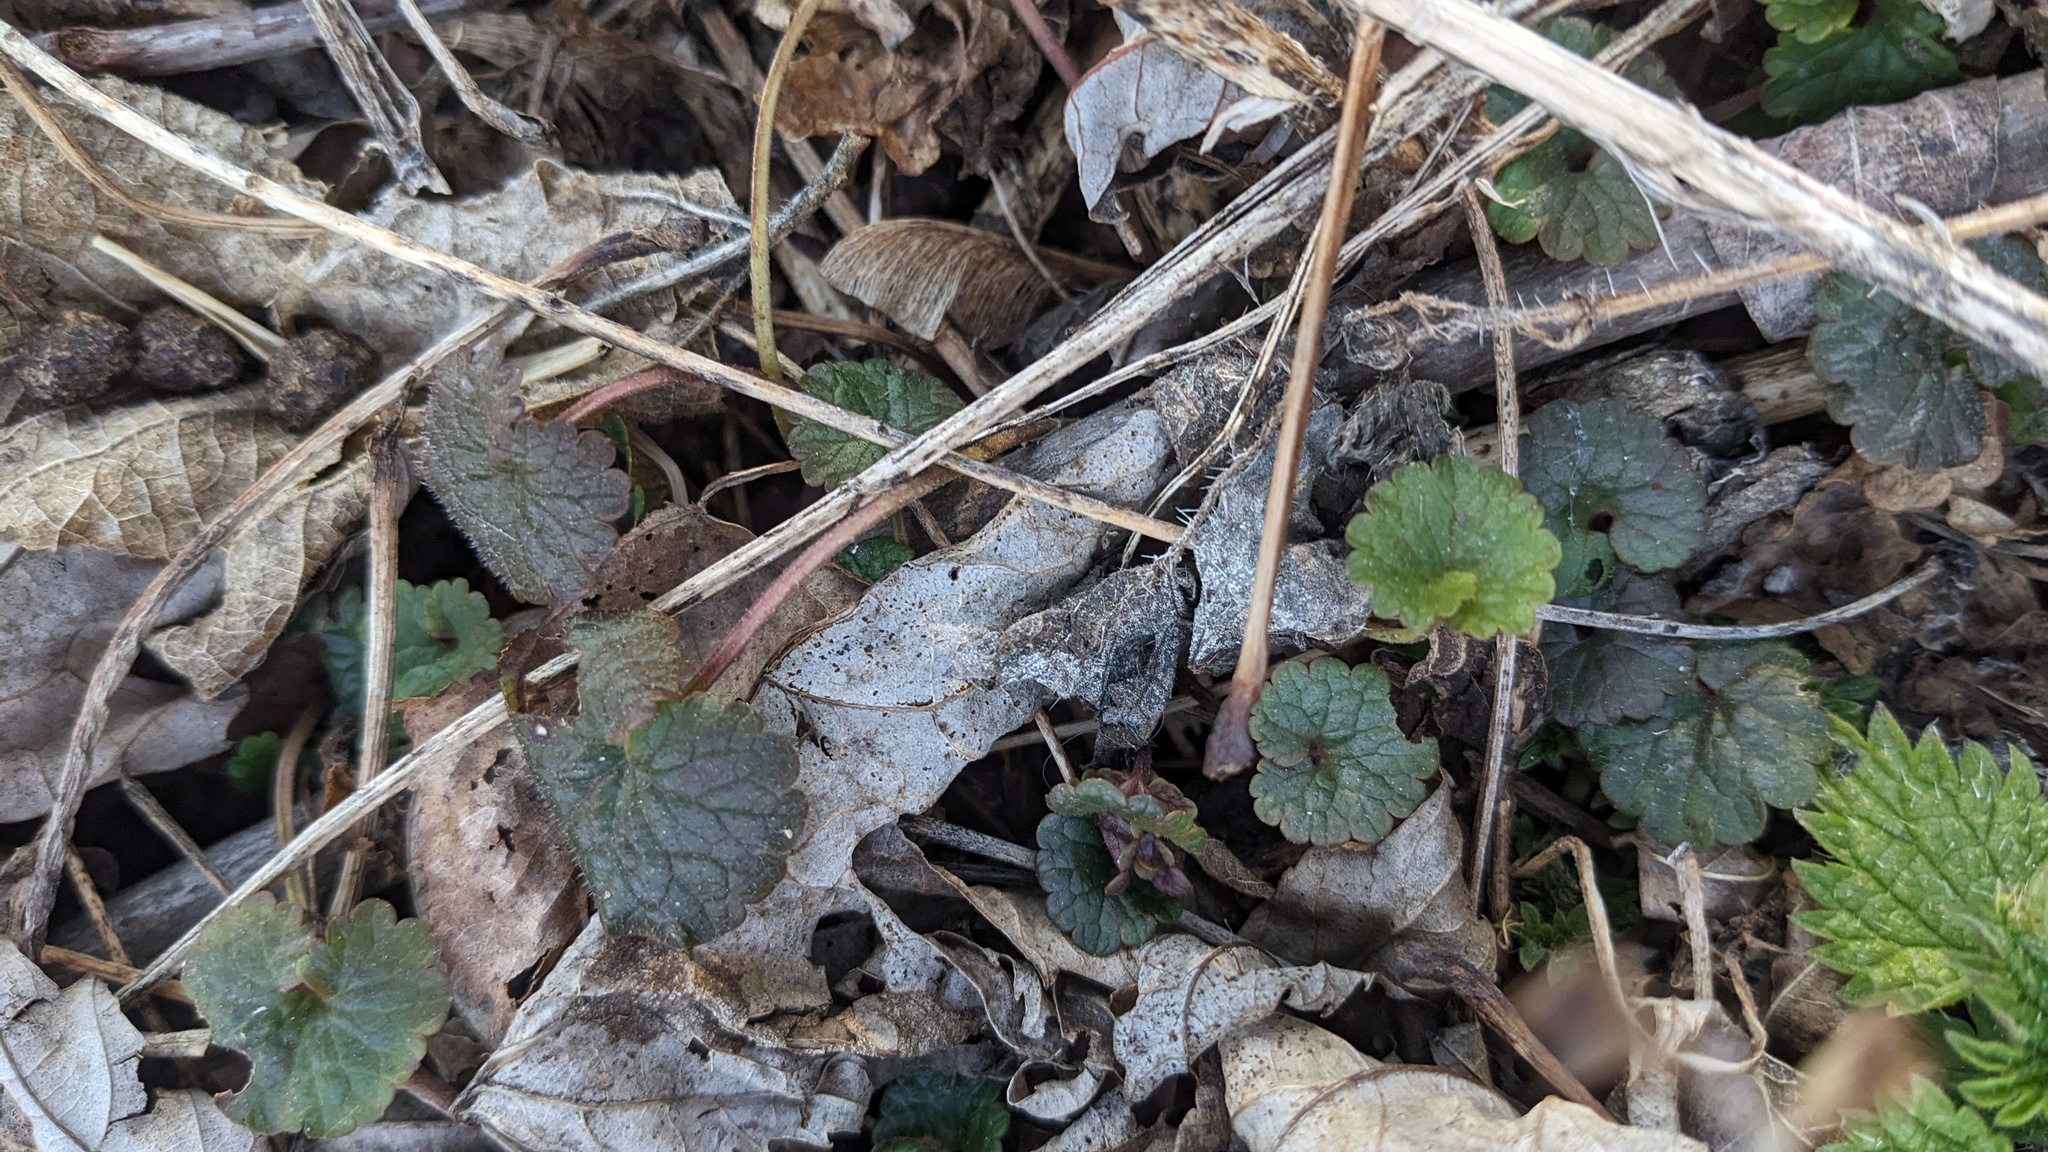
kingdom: Plantae
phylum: Tracheophyta
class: Magnoliopsida
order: Lamiales
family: Lamiaceae
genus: Glechoma
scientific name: Glechoma hederacea
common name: Ground ivy
